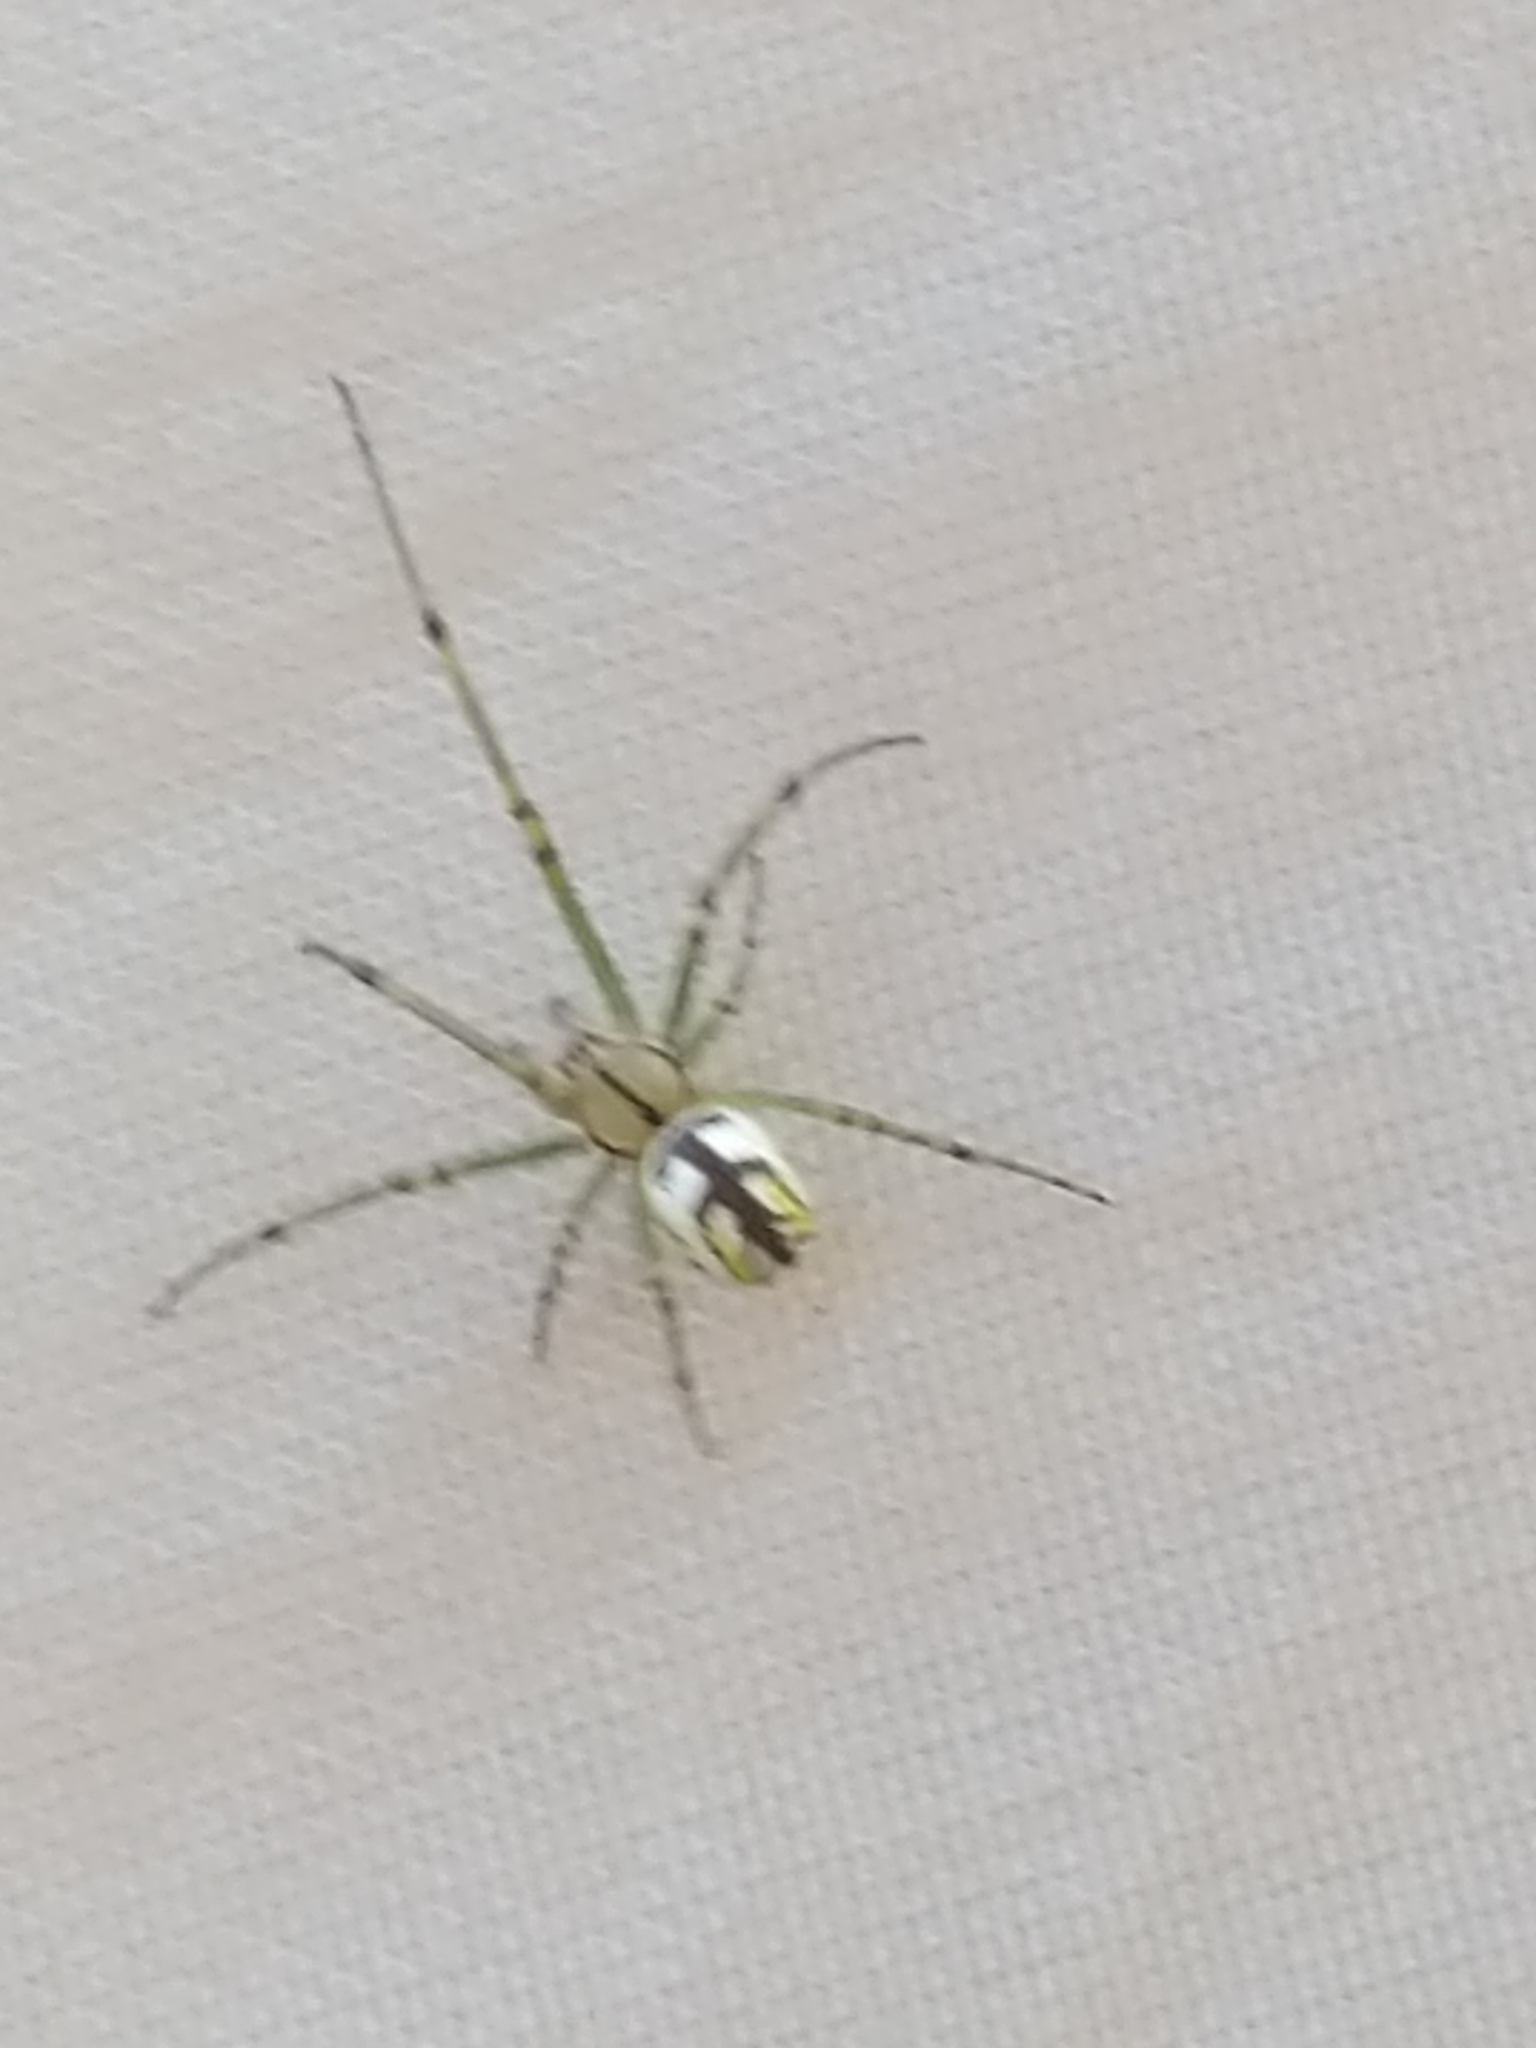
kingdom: Animalia
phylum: Arthropoda
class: Arachnida
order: Araneae
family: Tetragnathidae
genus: Leucauge
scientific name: Leucauge venusta
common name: Longjawed orb weavers
